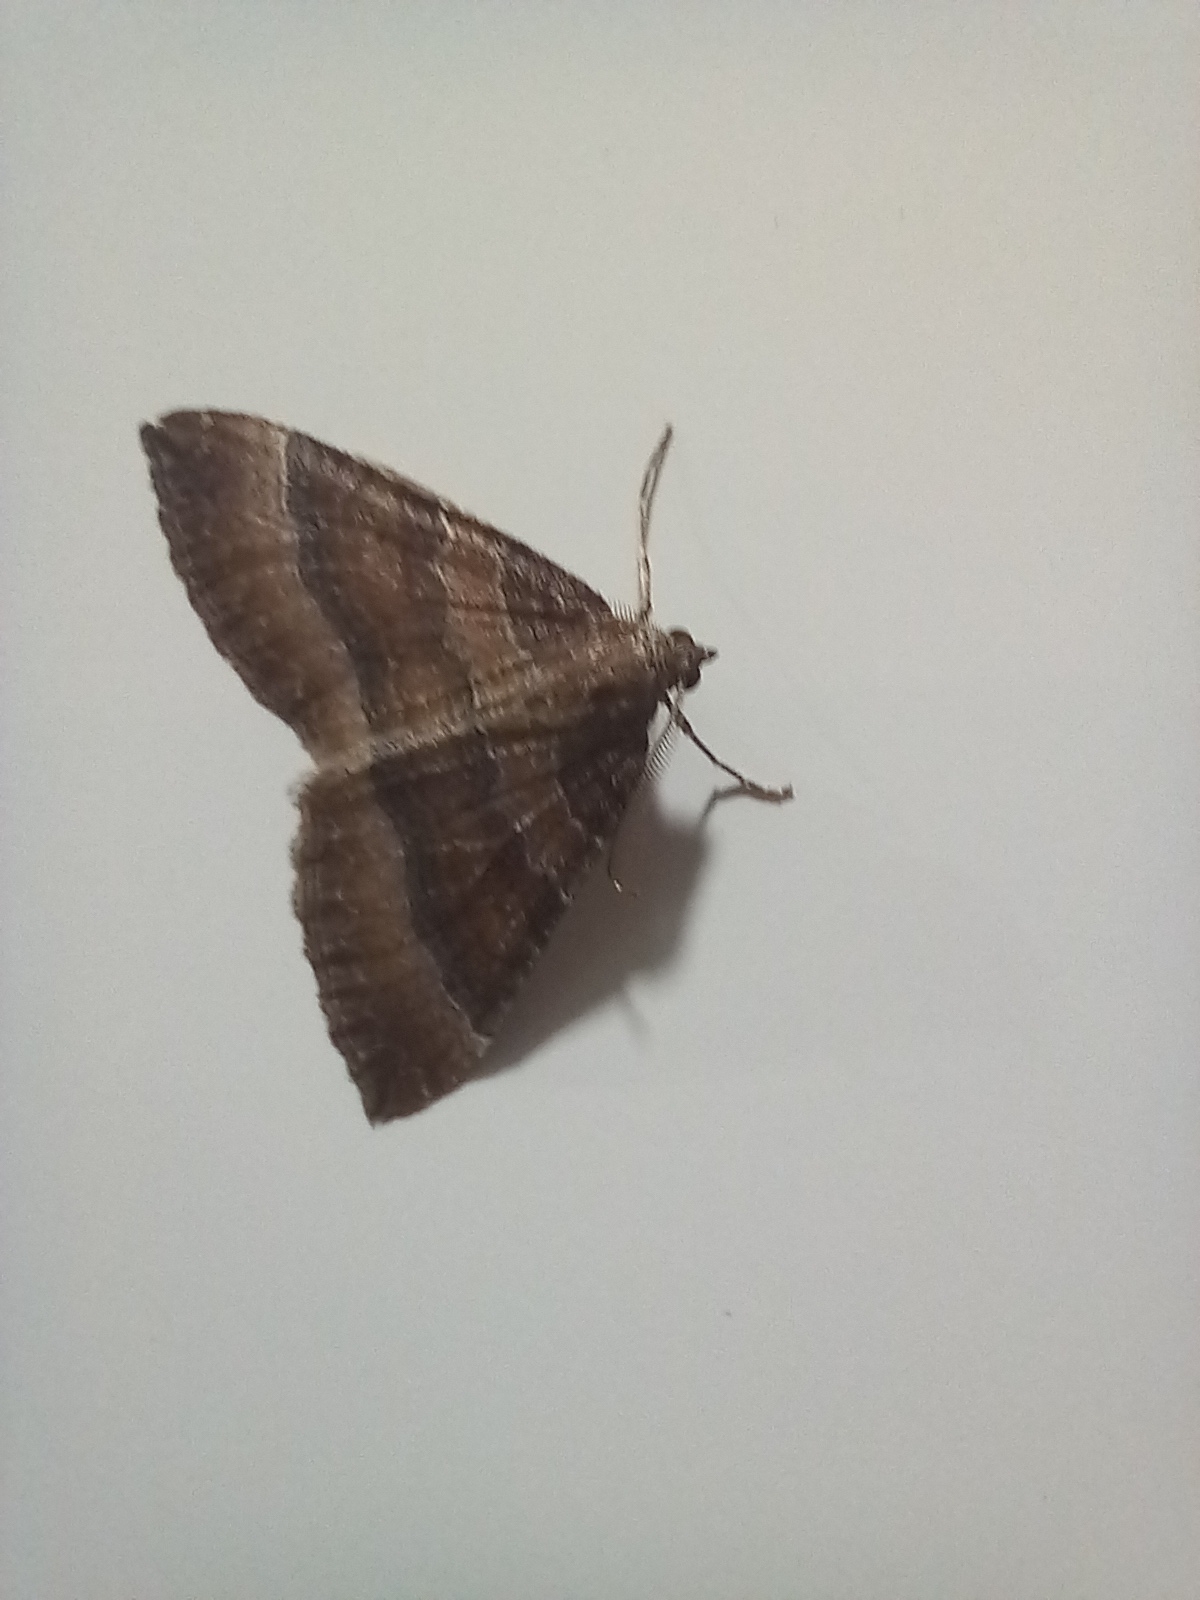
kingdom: Animalia
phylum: Arthropoda
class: Insecta
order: Lepidoptera
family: Geometridae
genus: Larentia
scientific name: Larentia clavaria
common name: Mallow
